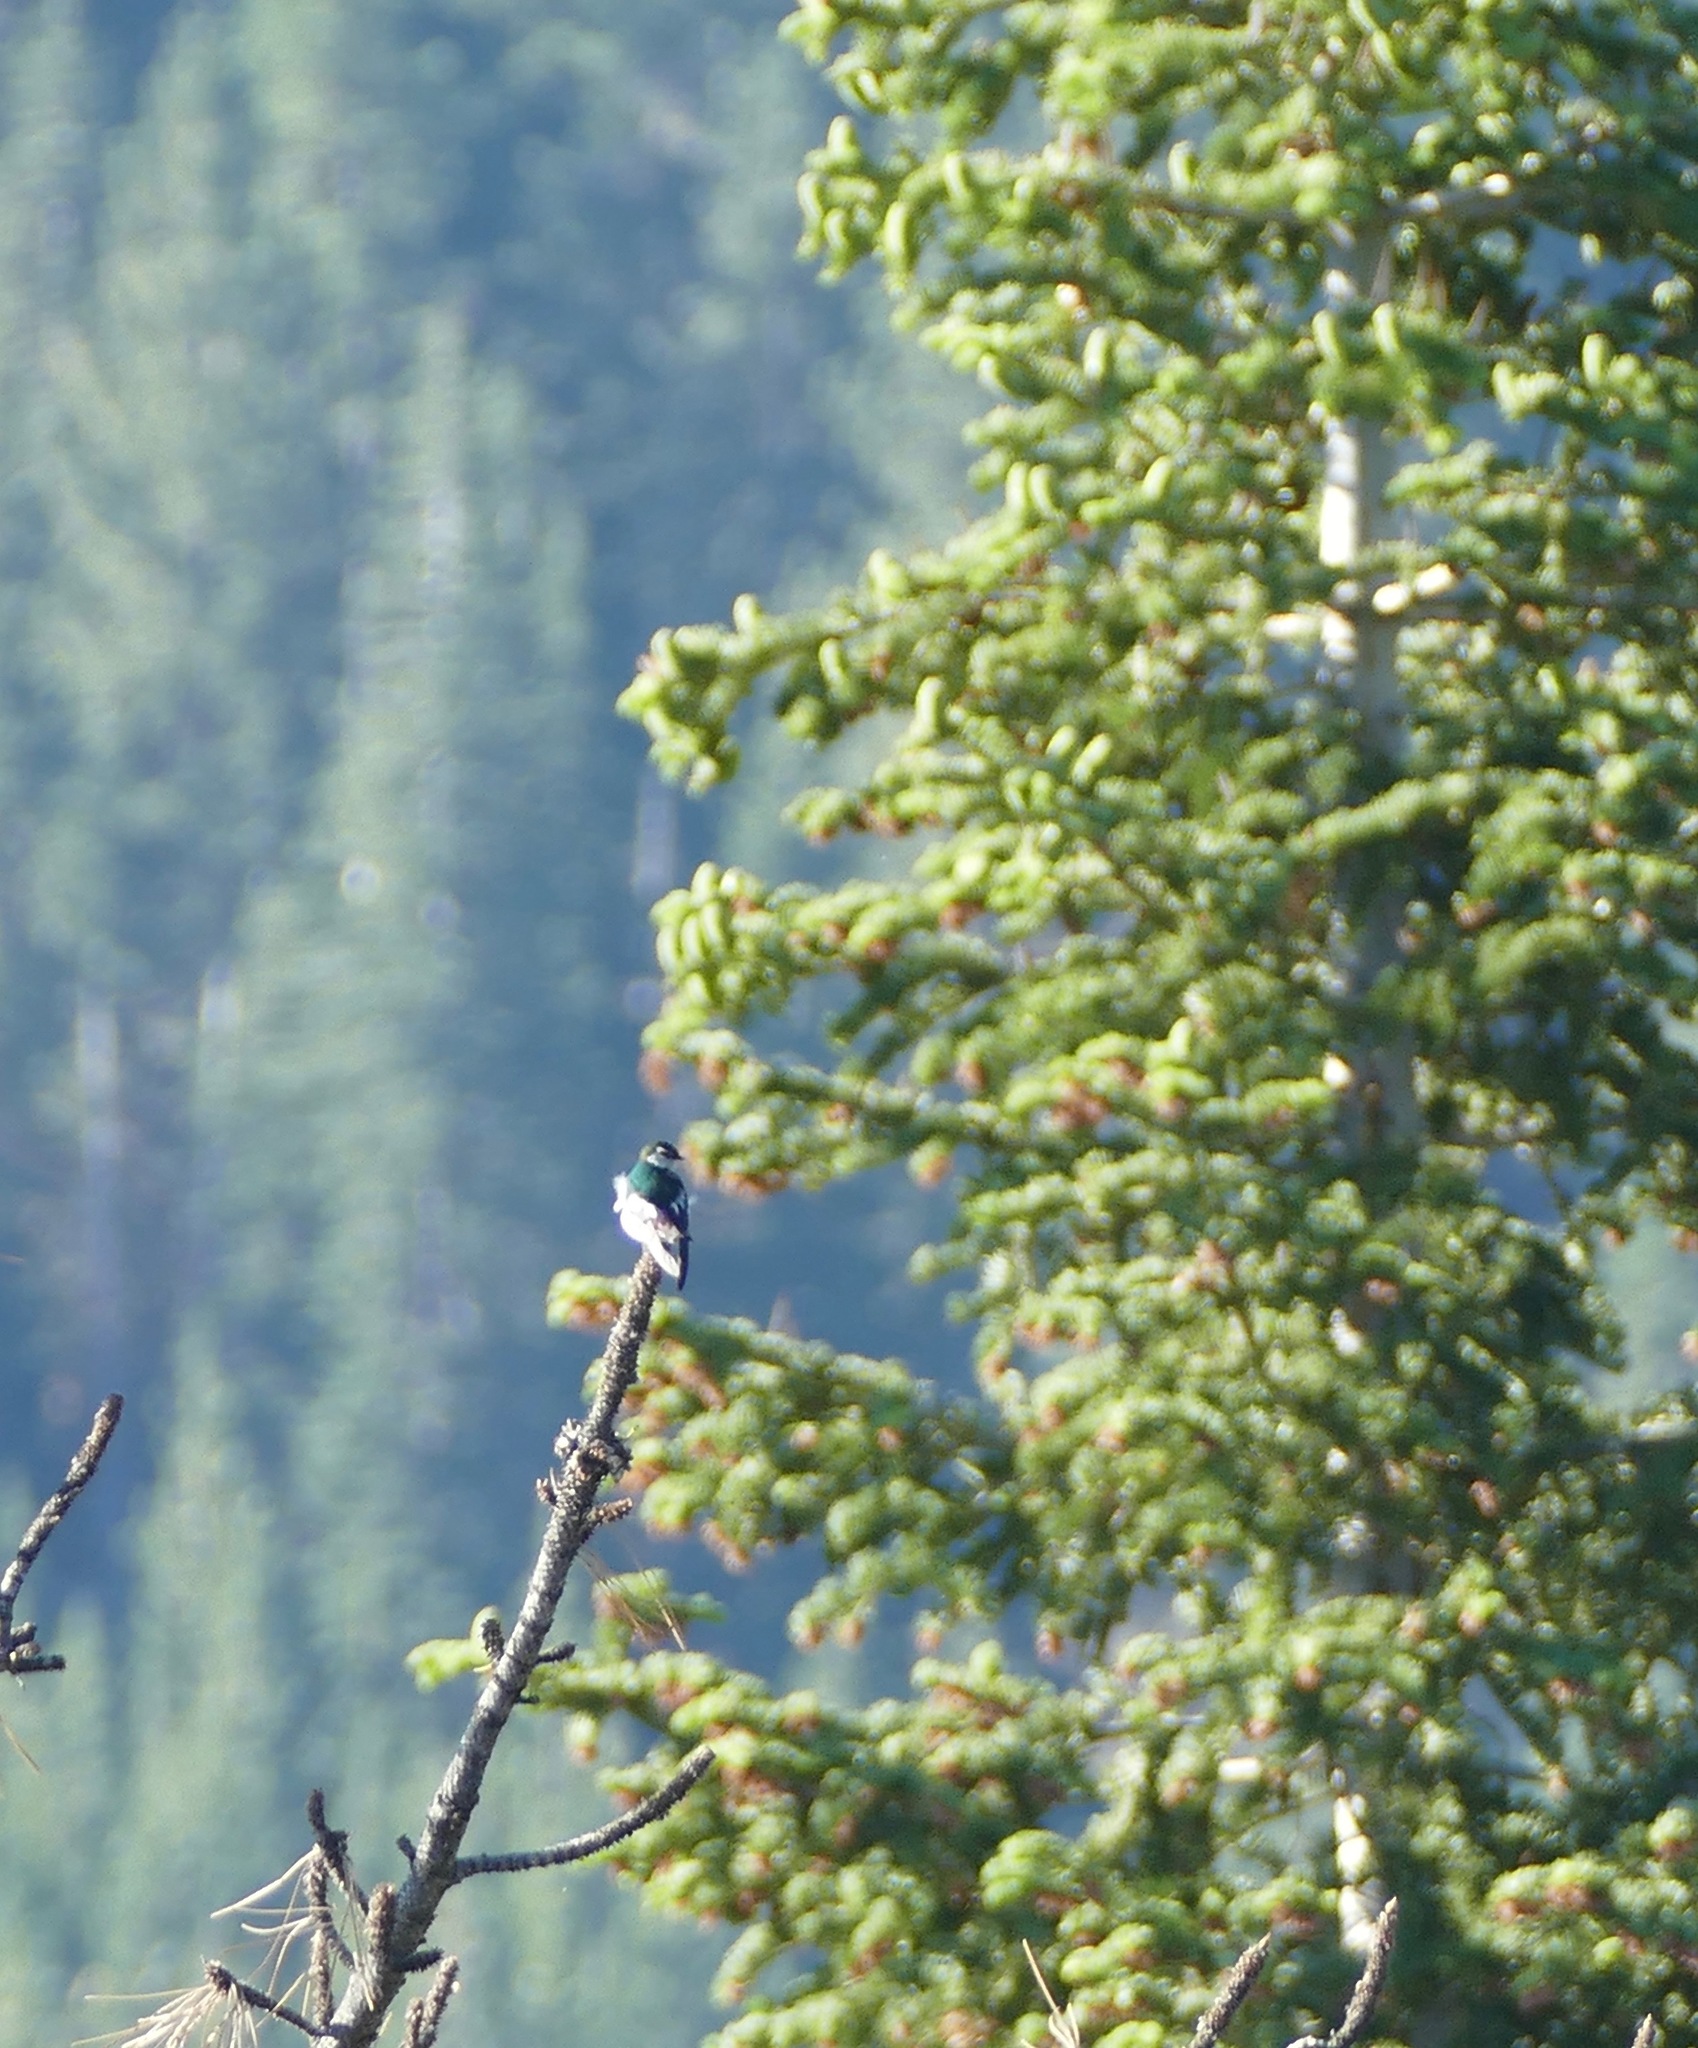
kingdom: Animalia
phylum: Chordata
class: Aves
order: Passeriformes
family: Hirundinidae
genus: Tachycineta
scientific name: Tachycineta thalassina
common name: Violet-green swallow
